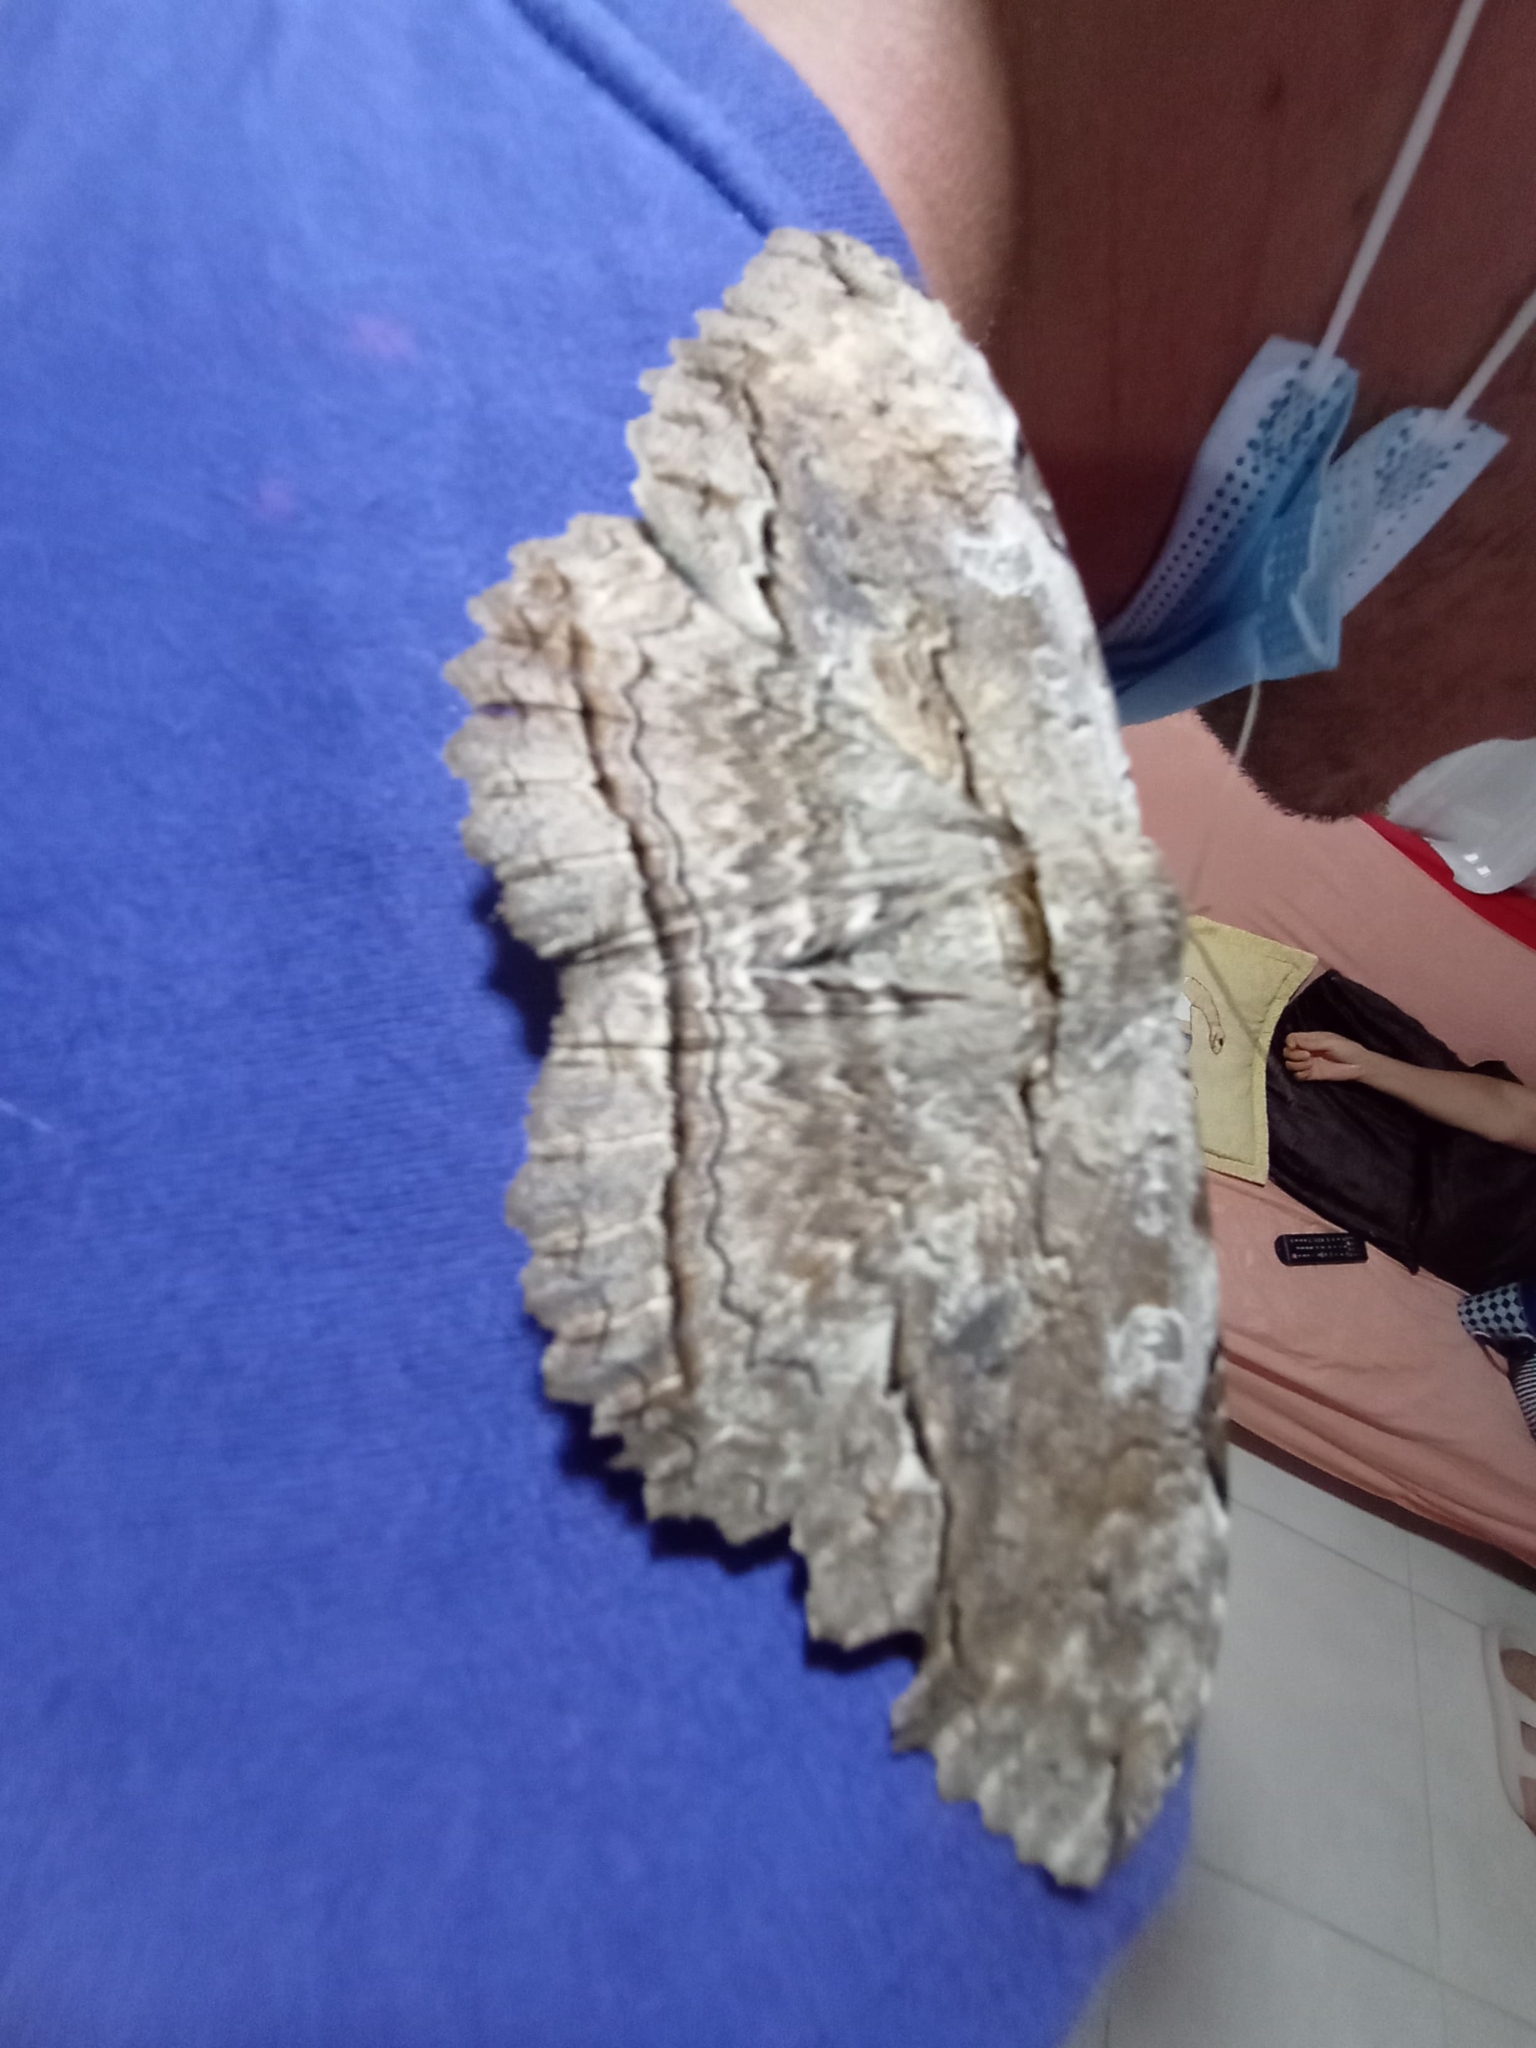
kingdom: Animalia
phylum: Arthropoda
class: Insecta
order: Lepidoptera
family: Erebidae
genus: Thysania
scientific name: Thysania zenobia
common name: Owl moth
